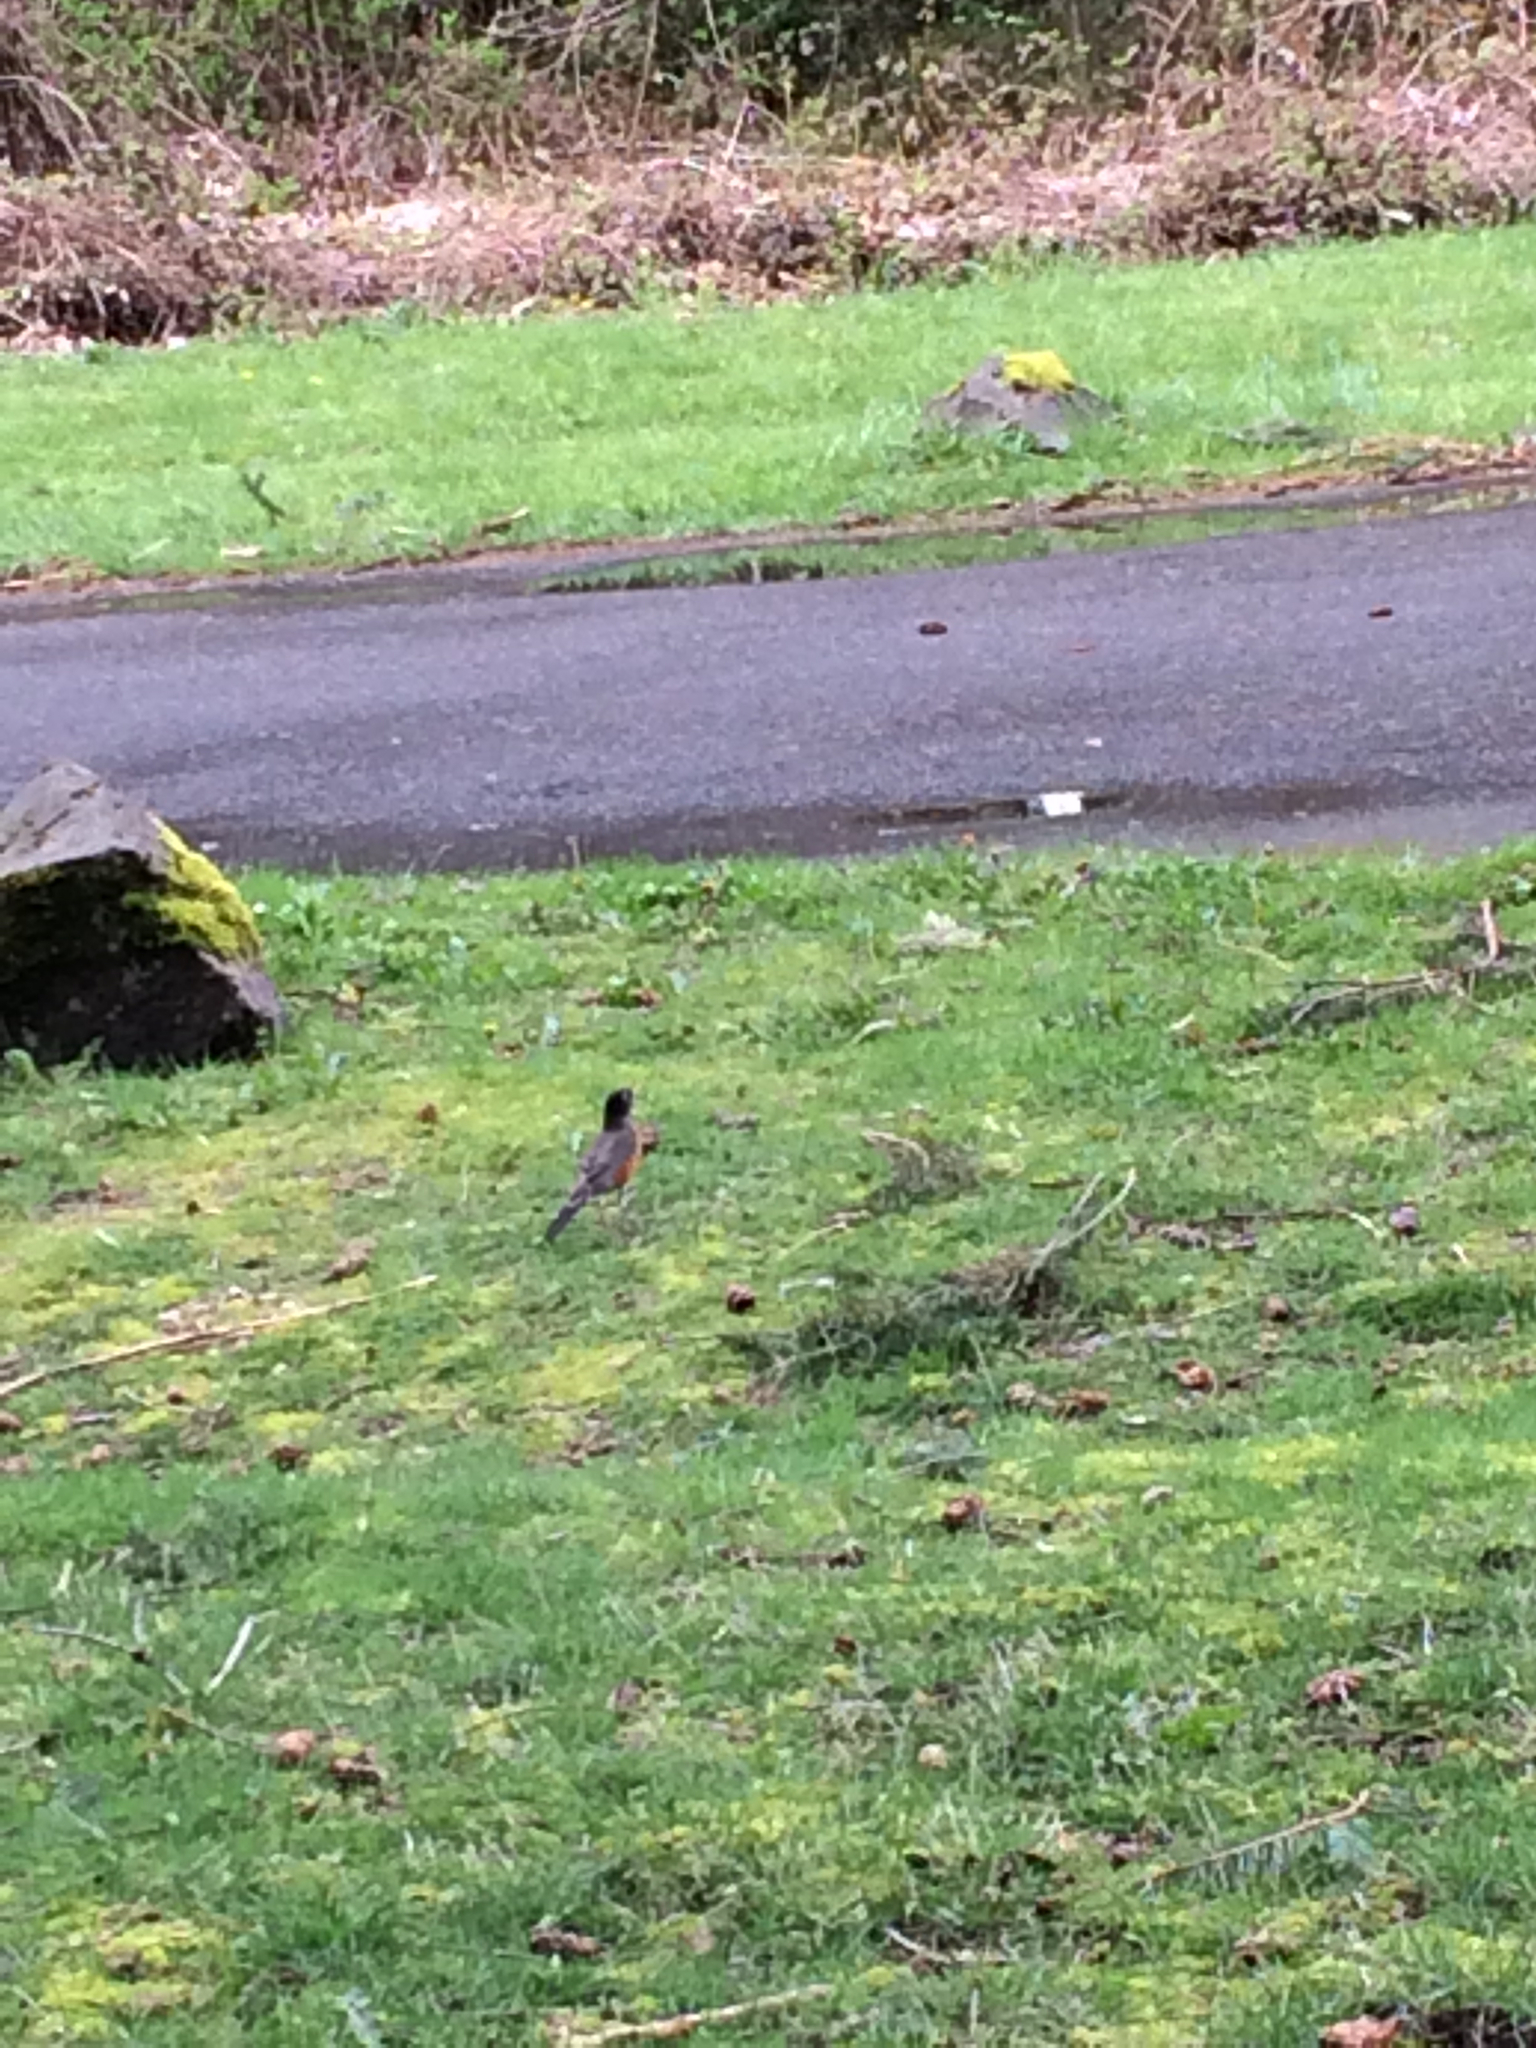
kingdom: Animalia
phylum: Chordata
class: Aves
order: Passeriformes
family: Turdidae
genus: Turdus
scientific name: Turdus migratorius
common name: American robin
